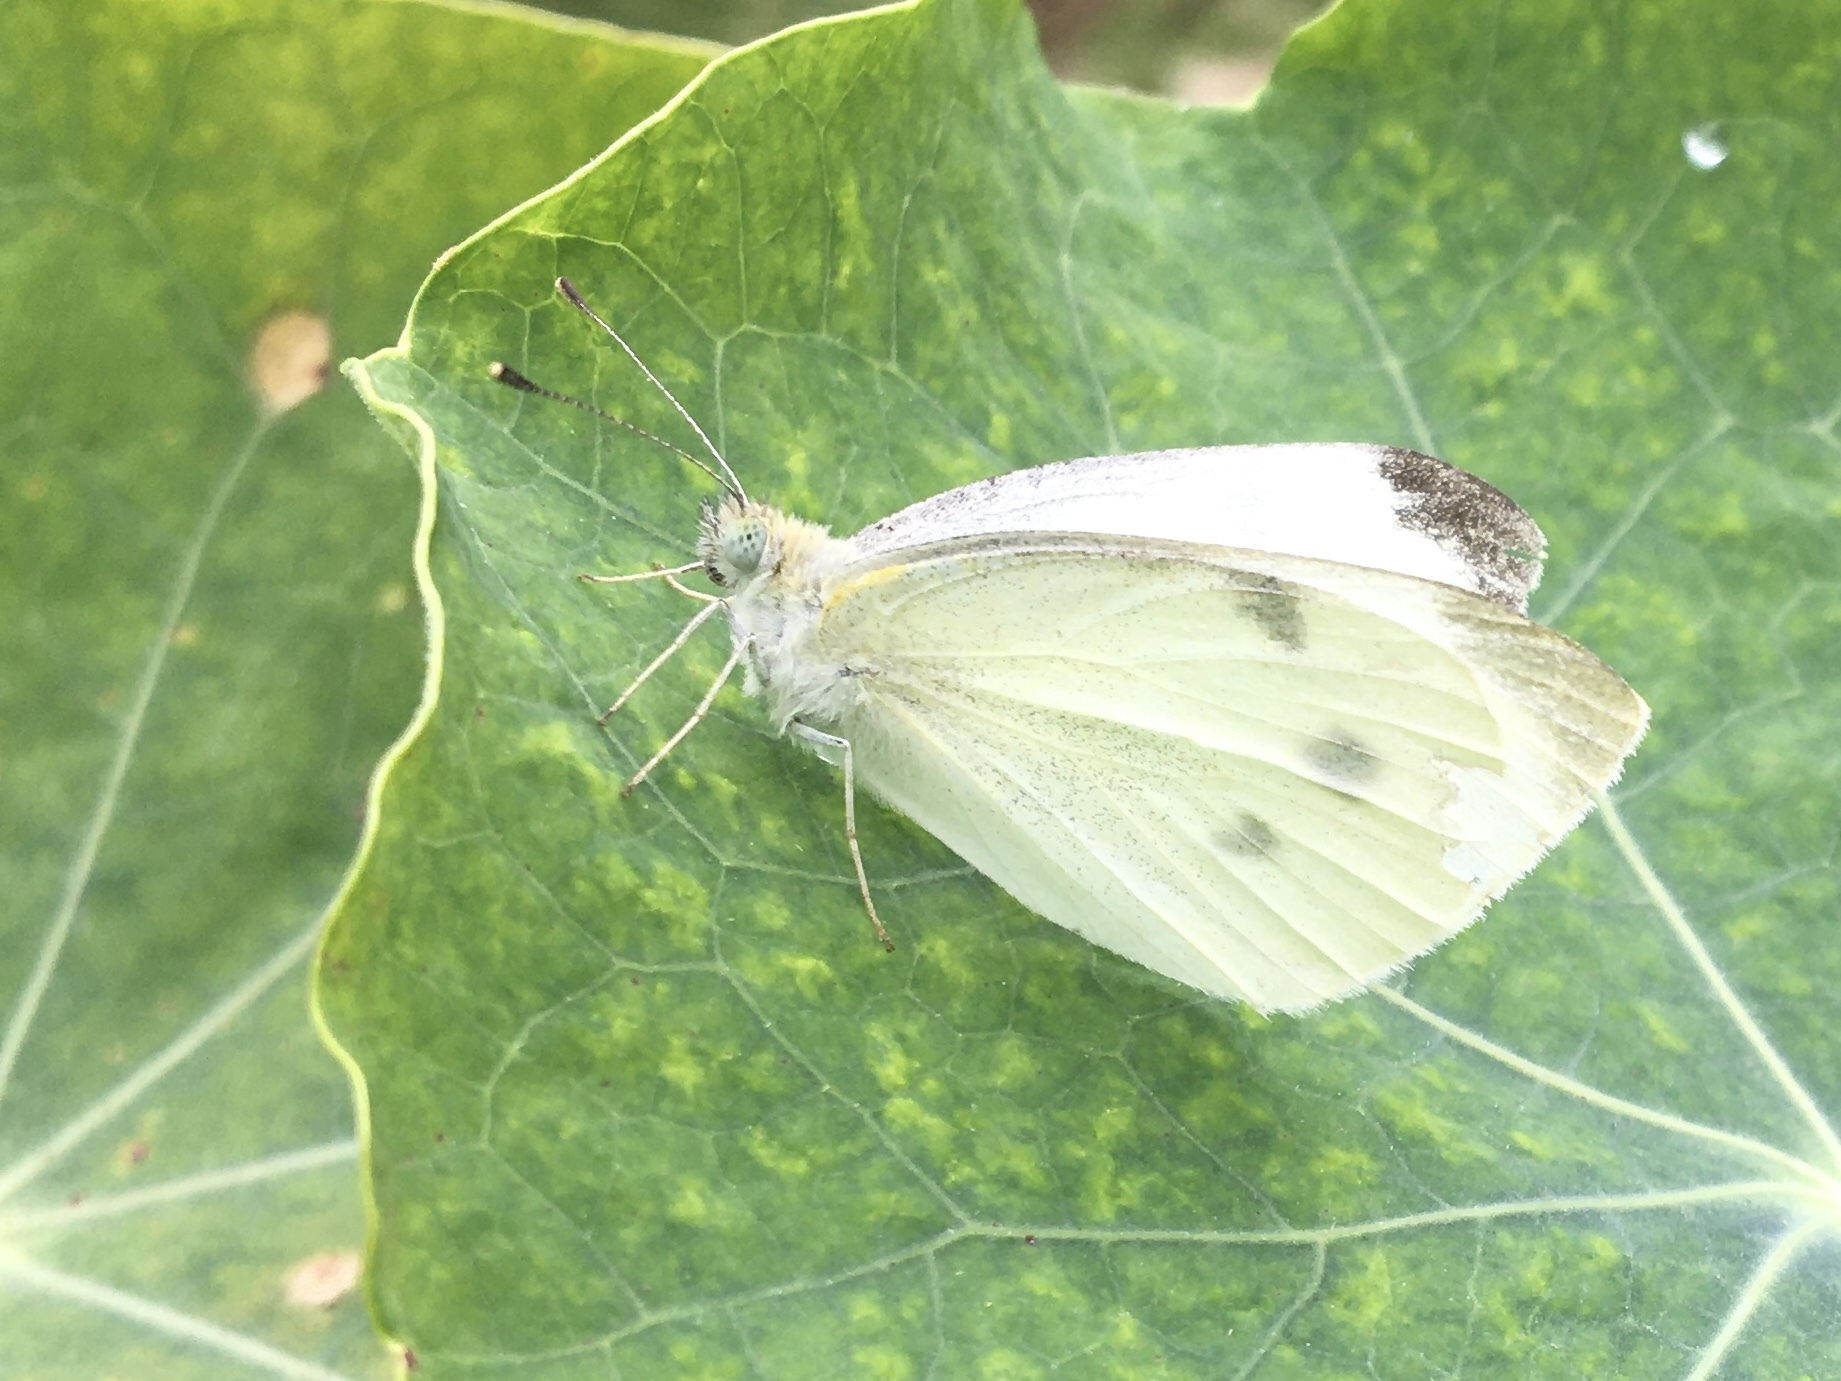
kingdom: Animalia
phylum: Arthropoda
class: Insecta
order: Lepidoptera
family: Pieridae
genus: Pieris
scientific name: Pieris rapae
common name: Small white
